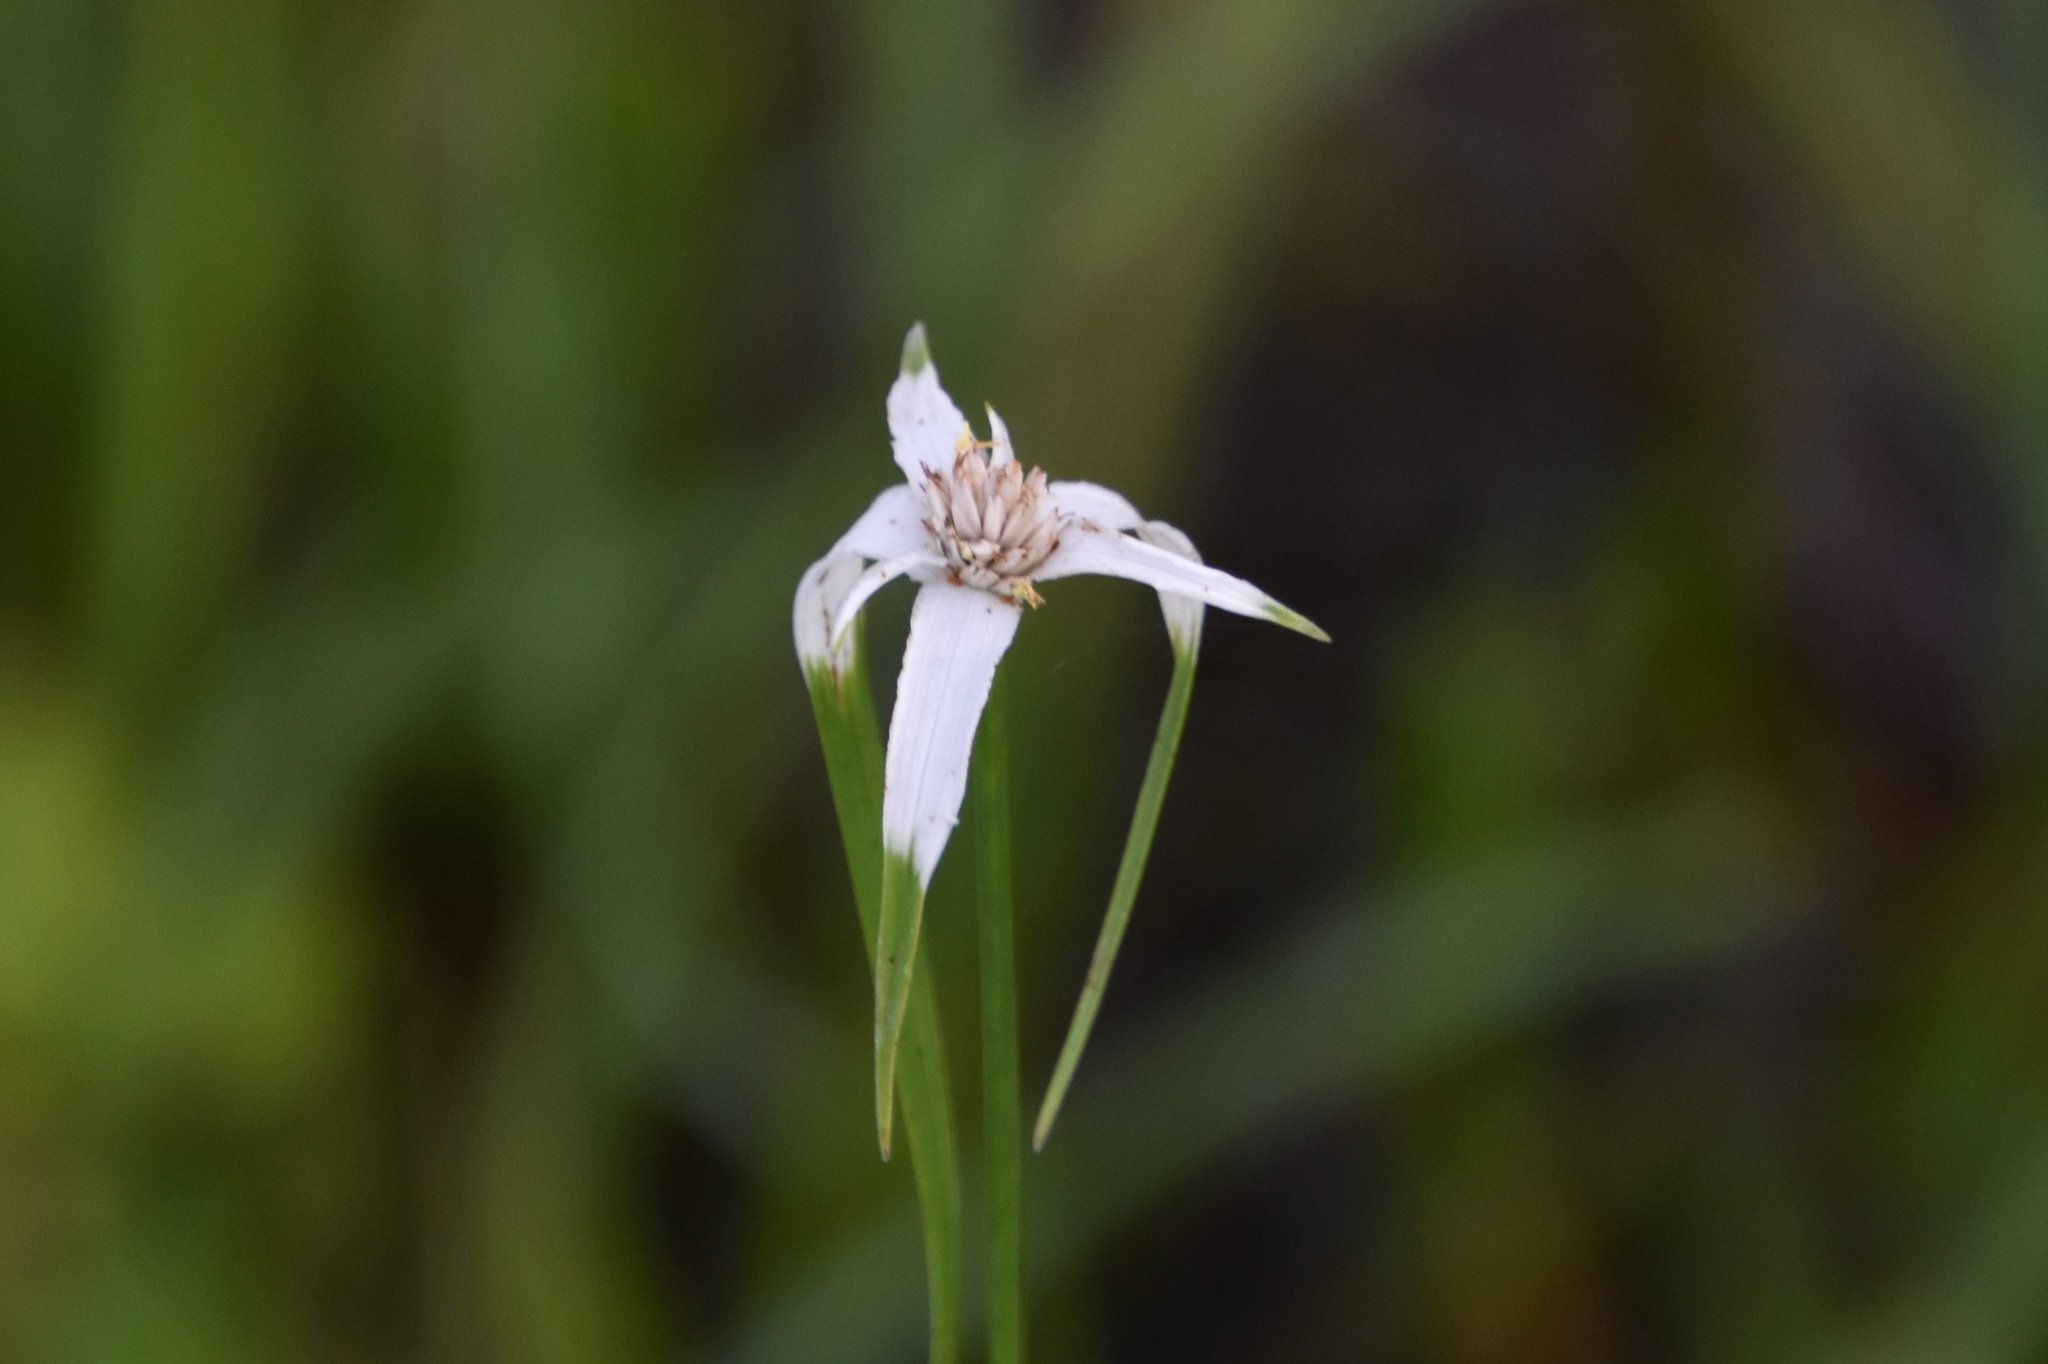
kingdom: Plantae
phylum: Tracheophyta
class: Liliopsida
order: Poales
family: Cyperaceae
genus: Rhynchospora
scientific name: Rhynchospora colorata
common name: Star sedge
